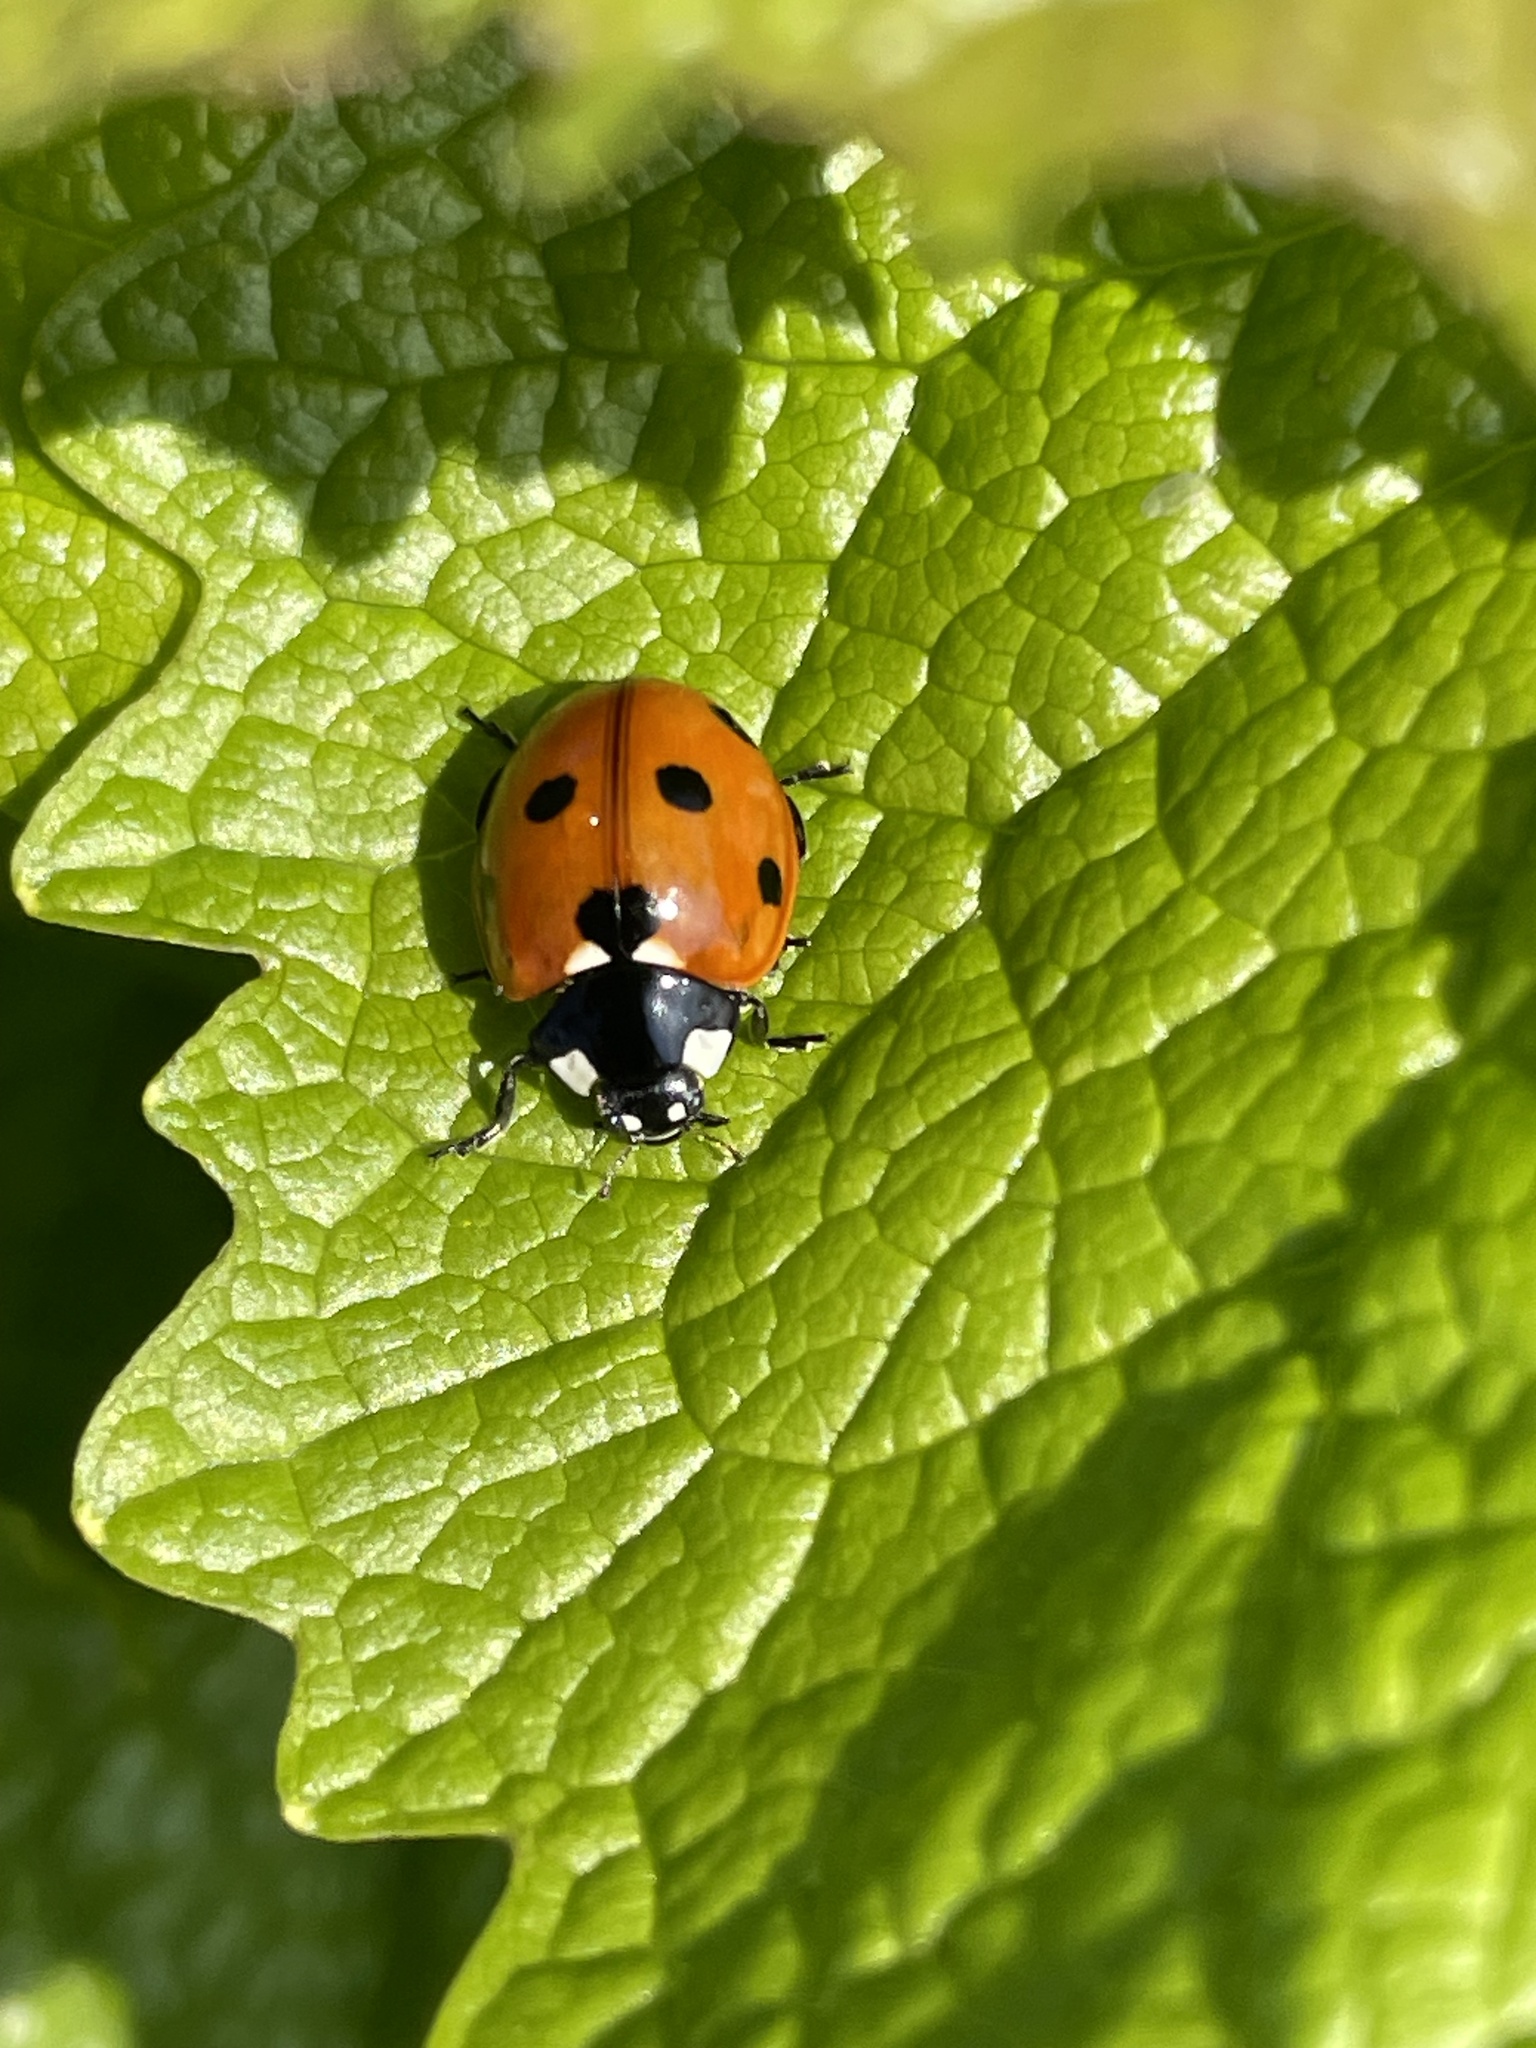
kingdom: Animalia
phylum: Arthropoda
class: Insecta
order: Coleoptera
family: Coccinellidae
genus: Coccinella
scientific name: Coccinella septempunctata
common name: Sevenspotted lady beetle
